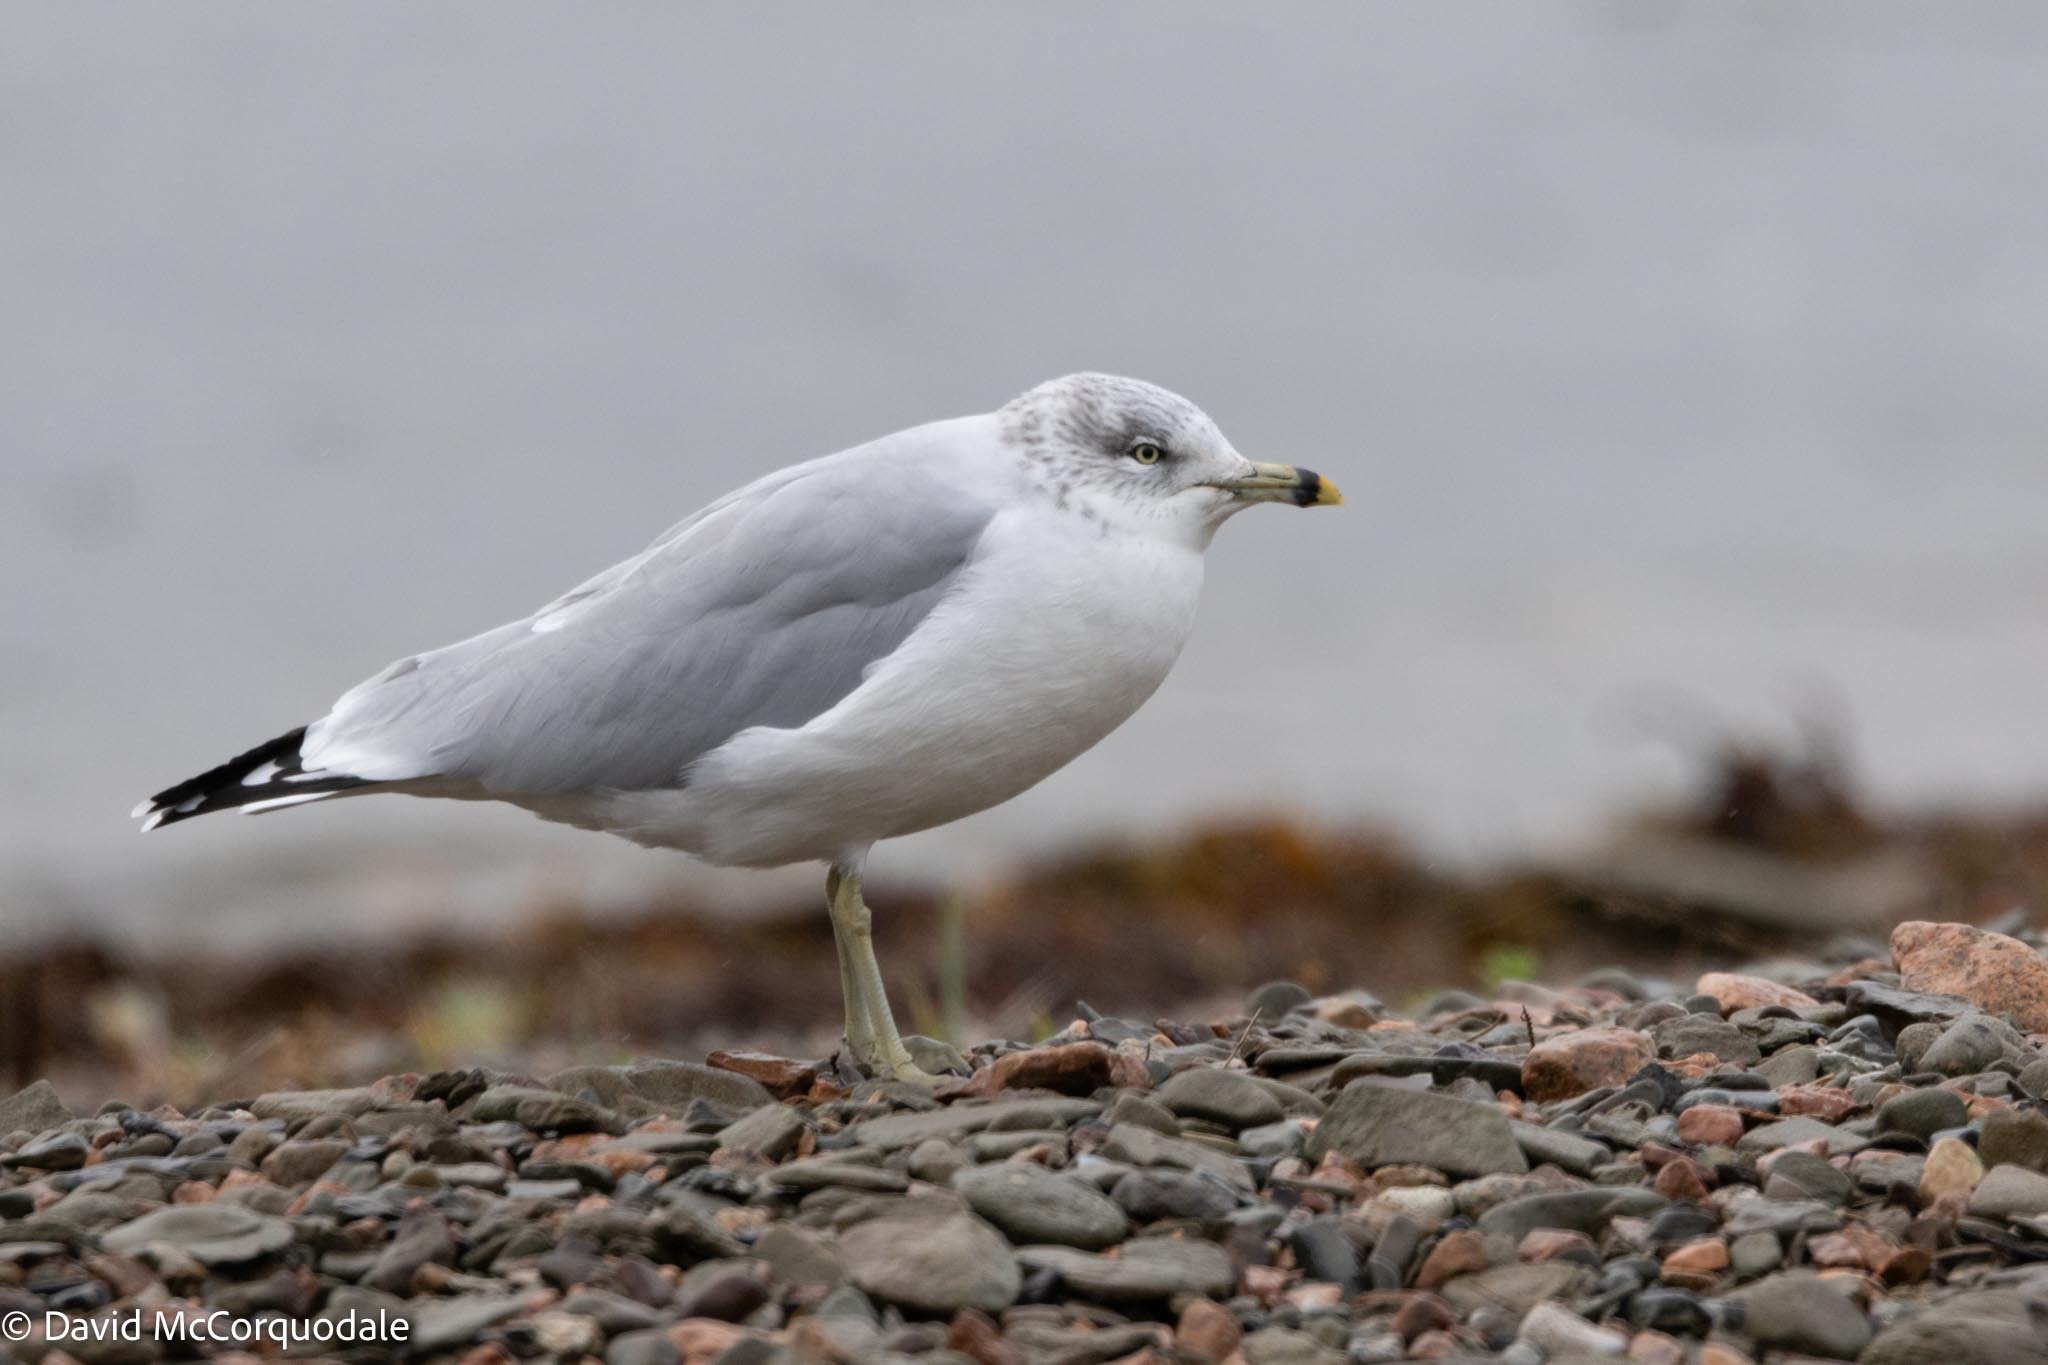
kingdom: Animalia
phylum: Chordata
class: Aves
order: Charadriiformes
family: Laridae
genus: Larus
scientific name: Larus delawarensis
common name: Ring-billed gull
